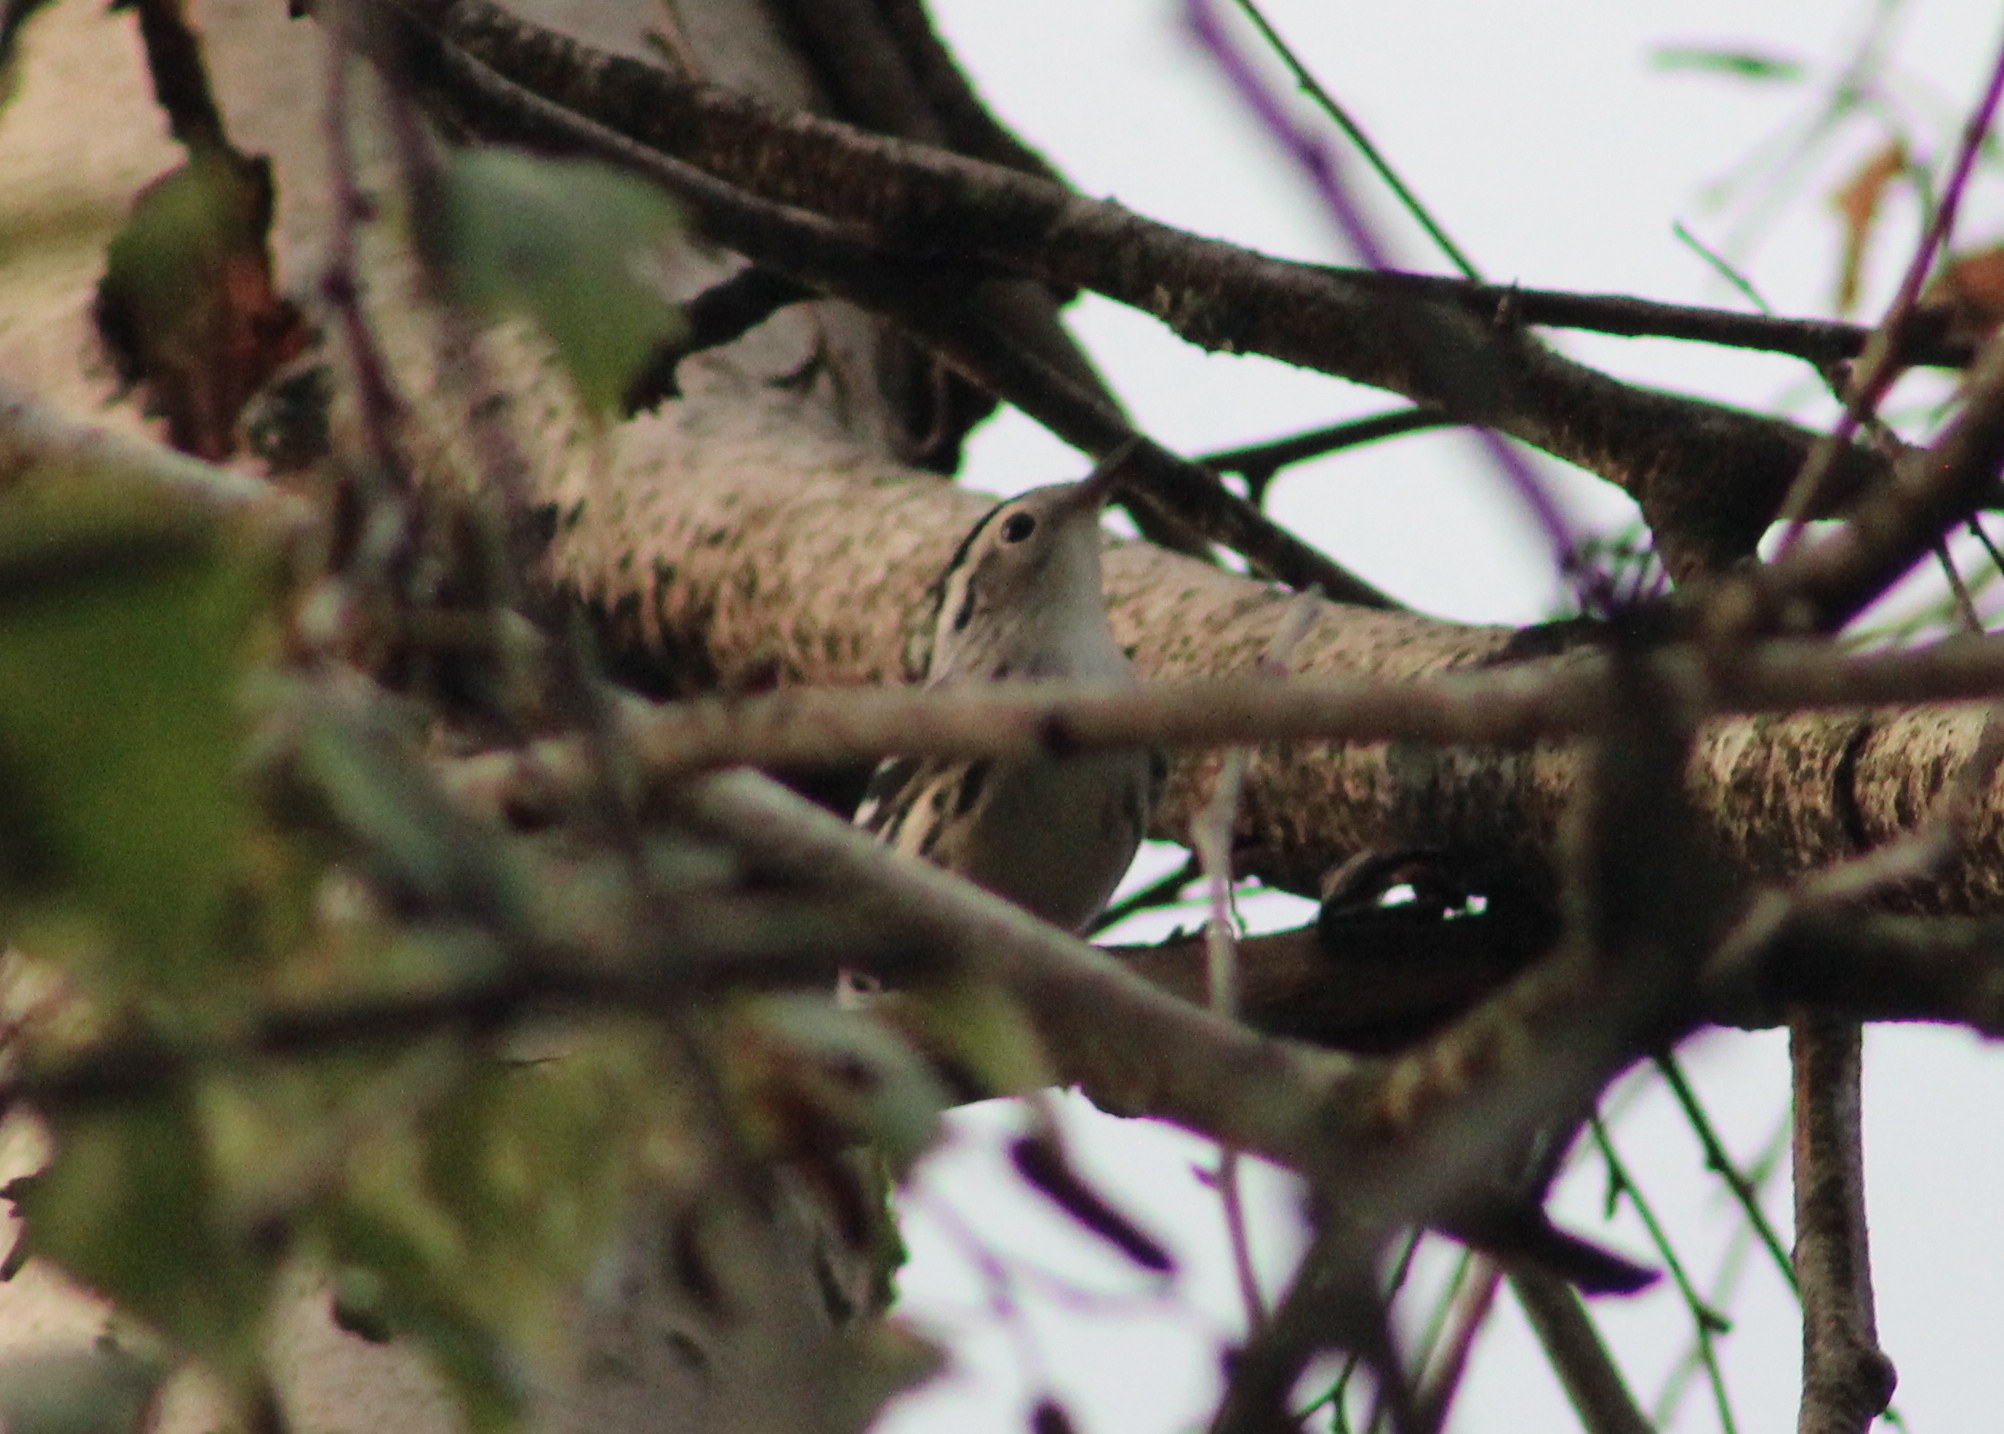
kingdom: Animalia
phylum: Chordata
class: Aves
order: Passeriformes
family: Parulidae
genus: Mniotilta
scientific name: Mniotilta varia
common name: Black-and-white warbler
